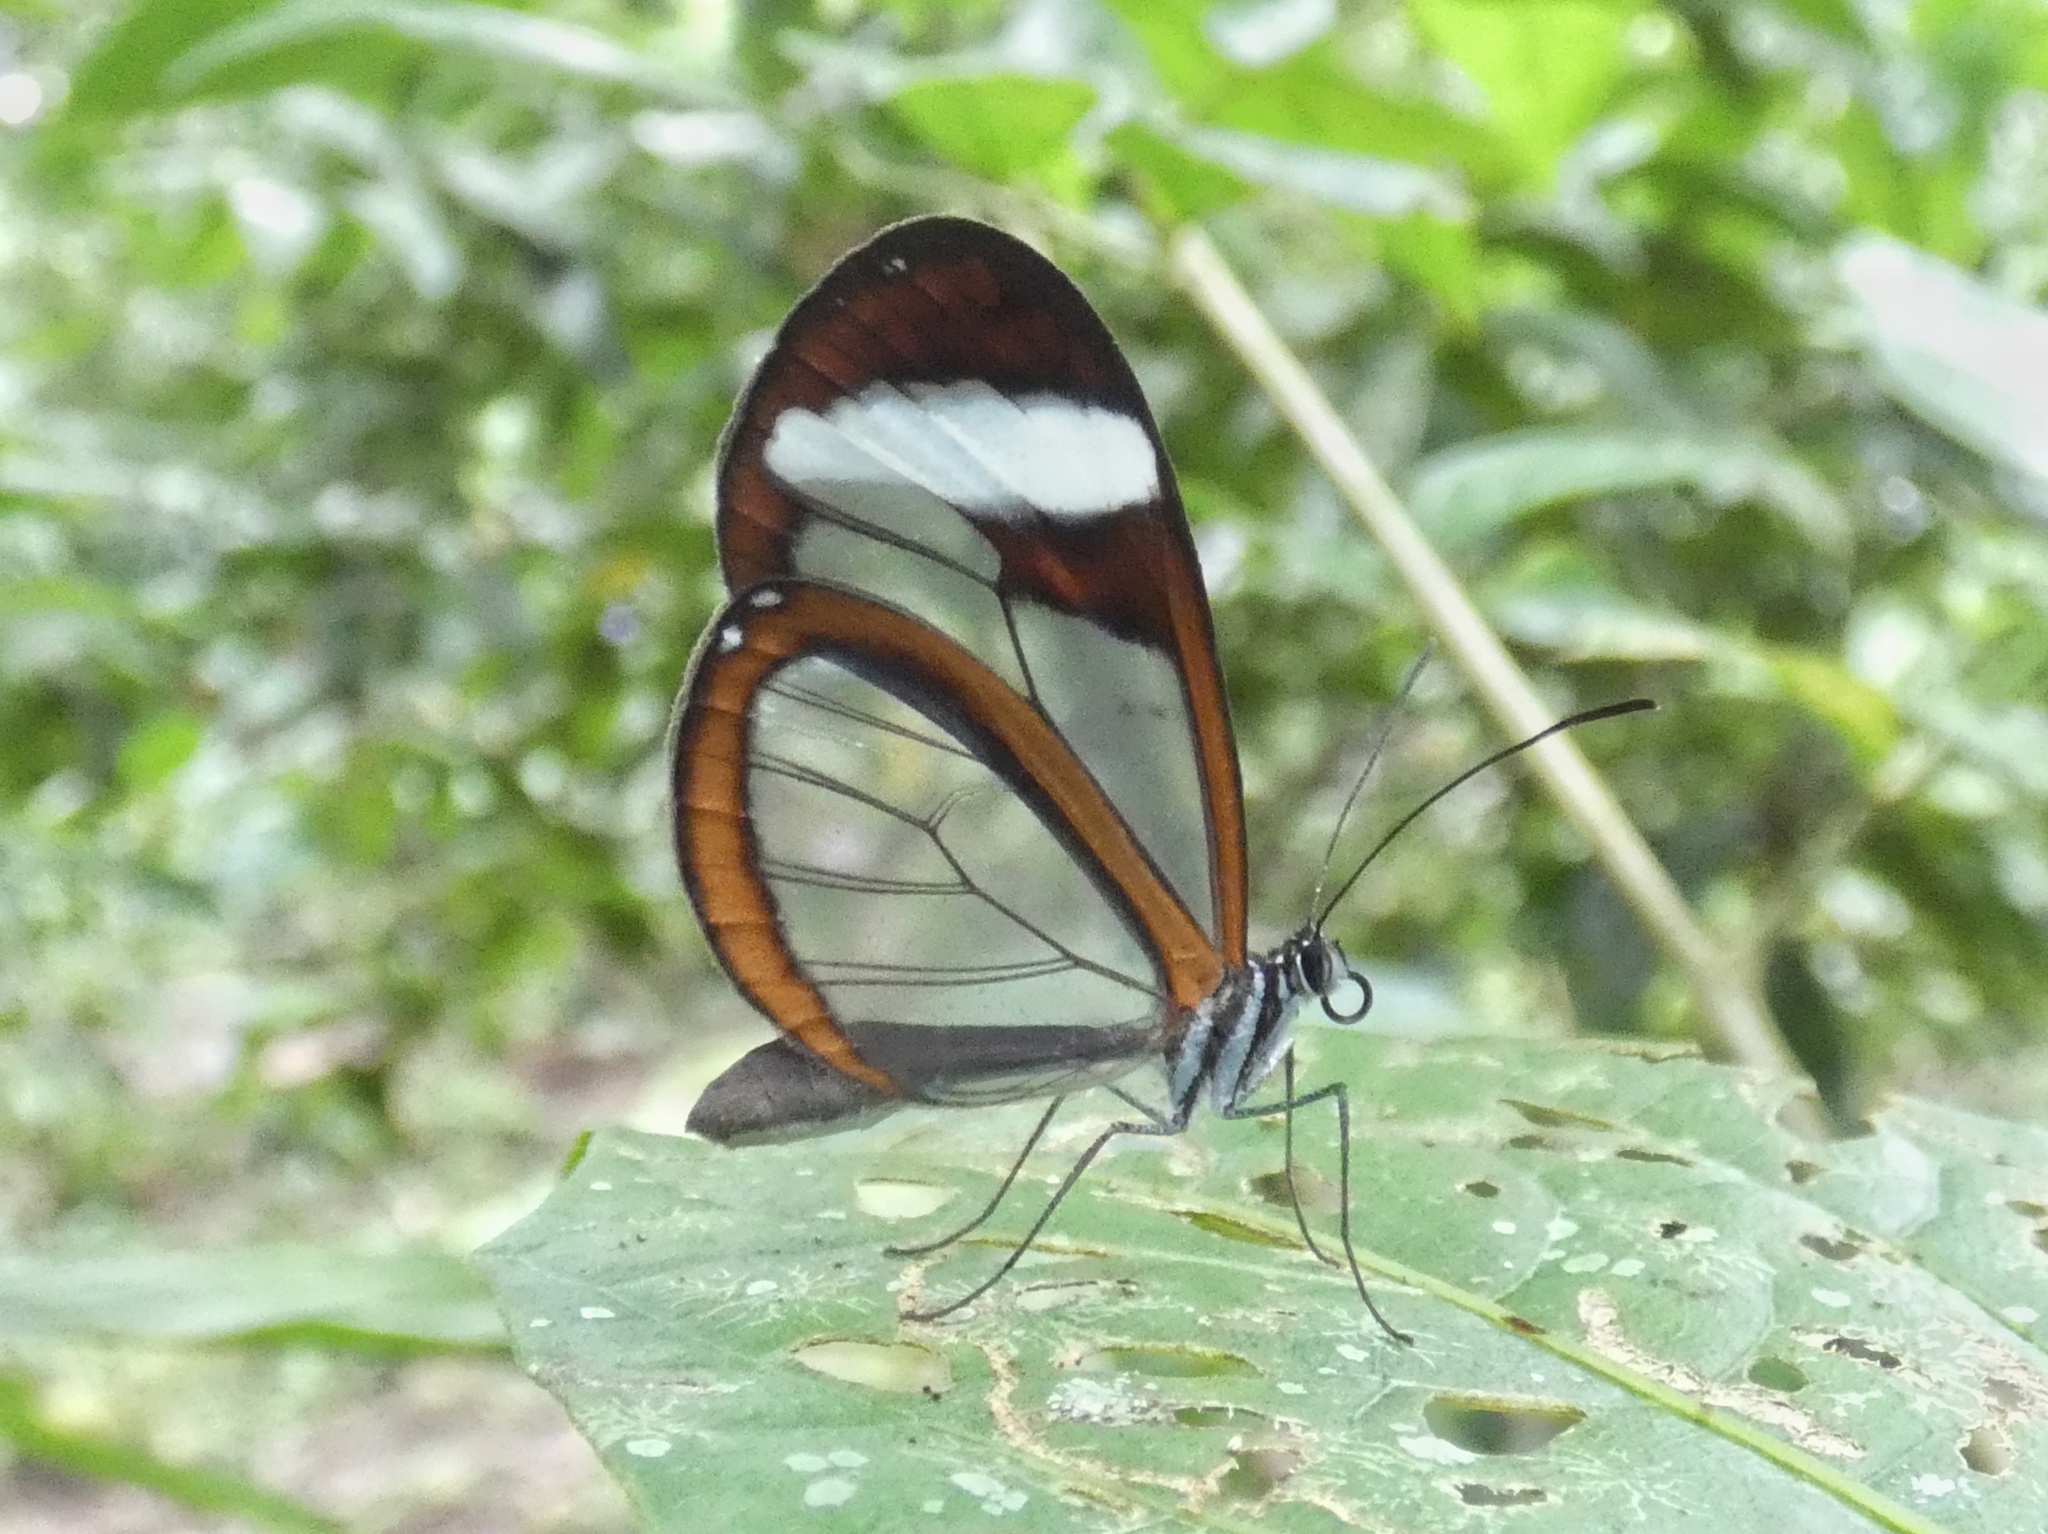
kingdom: Animalia
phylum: Arthropoda
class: Insecta
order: Lepidoptera
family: Nymphalidae
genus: Oleria
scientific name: Oleria paula
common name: Paula's clearwing
